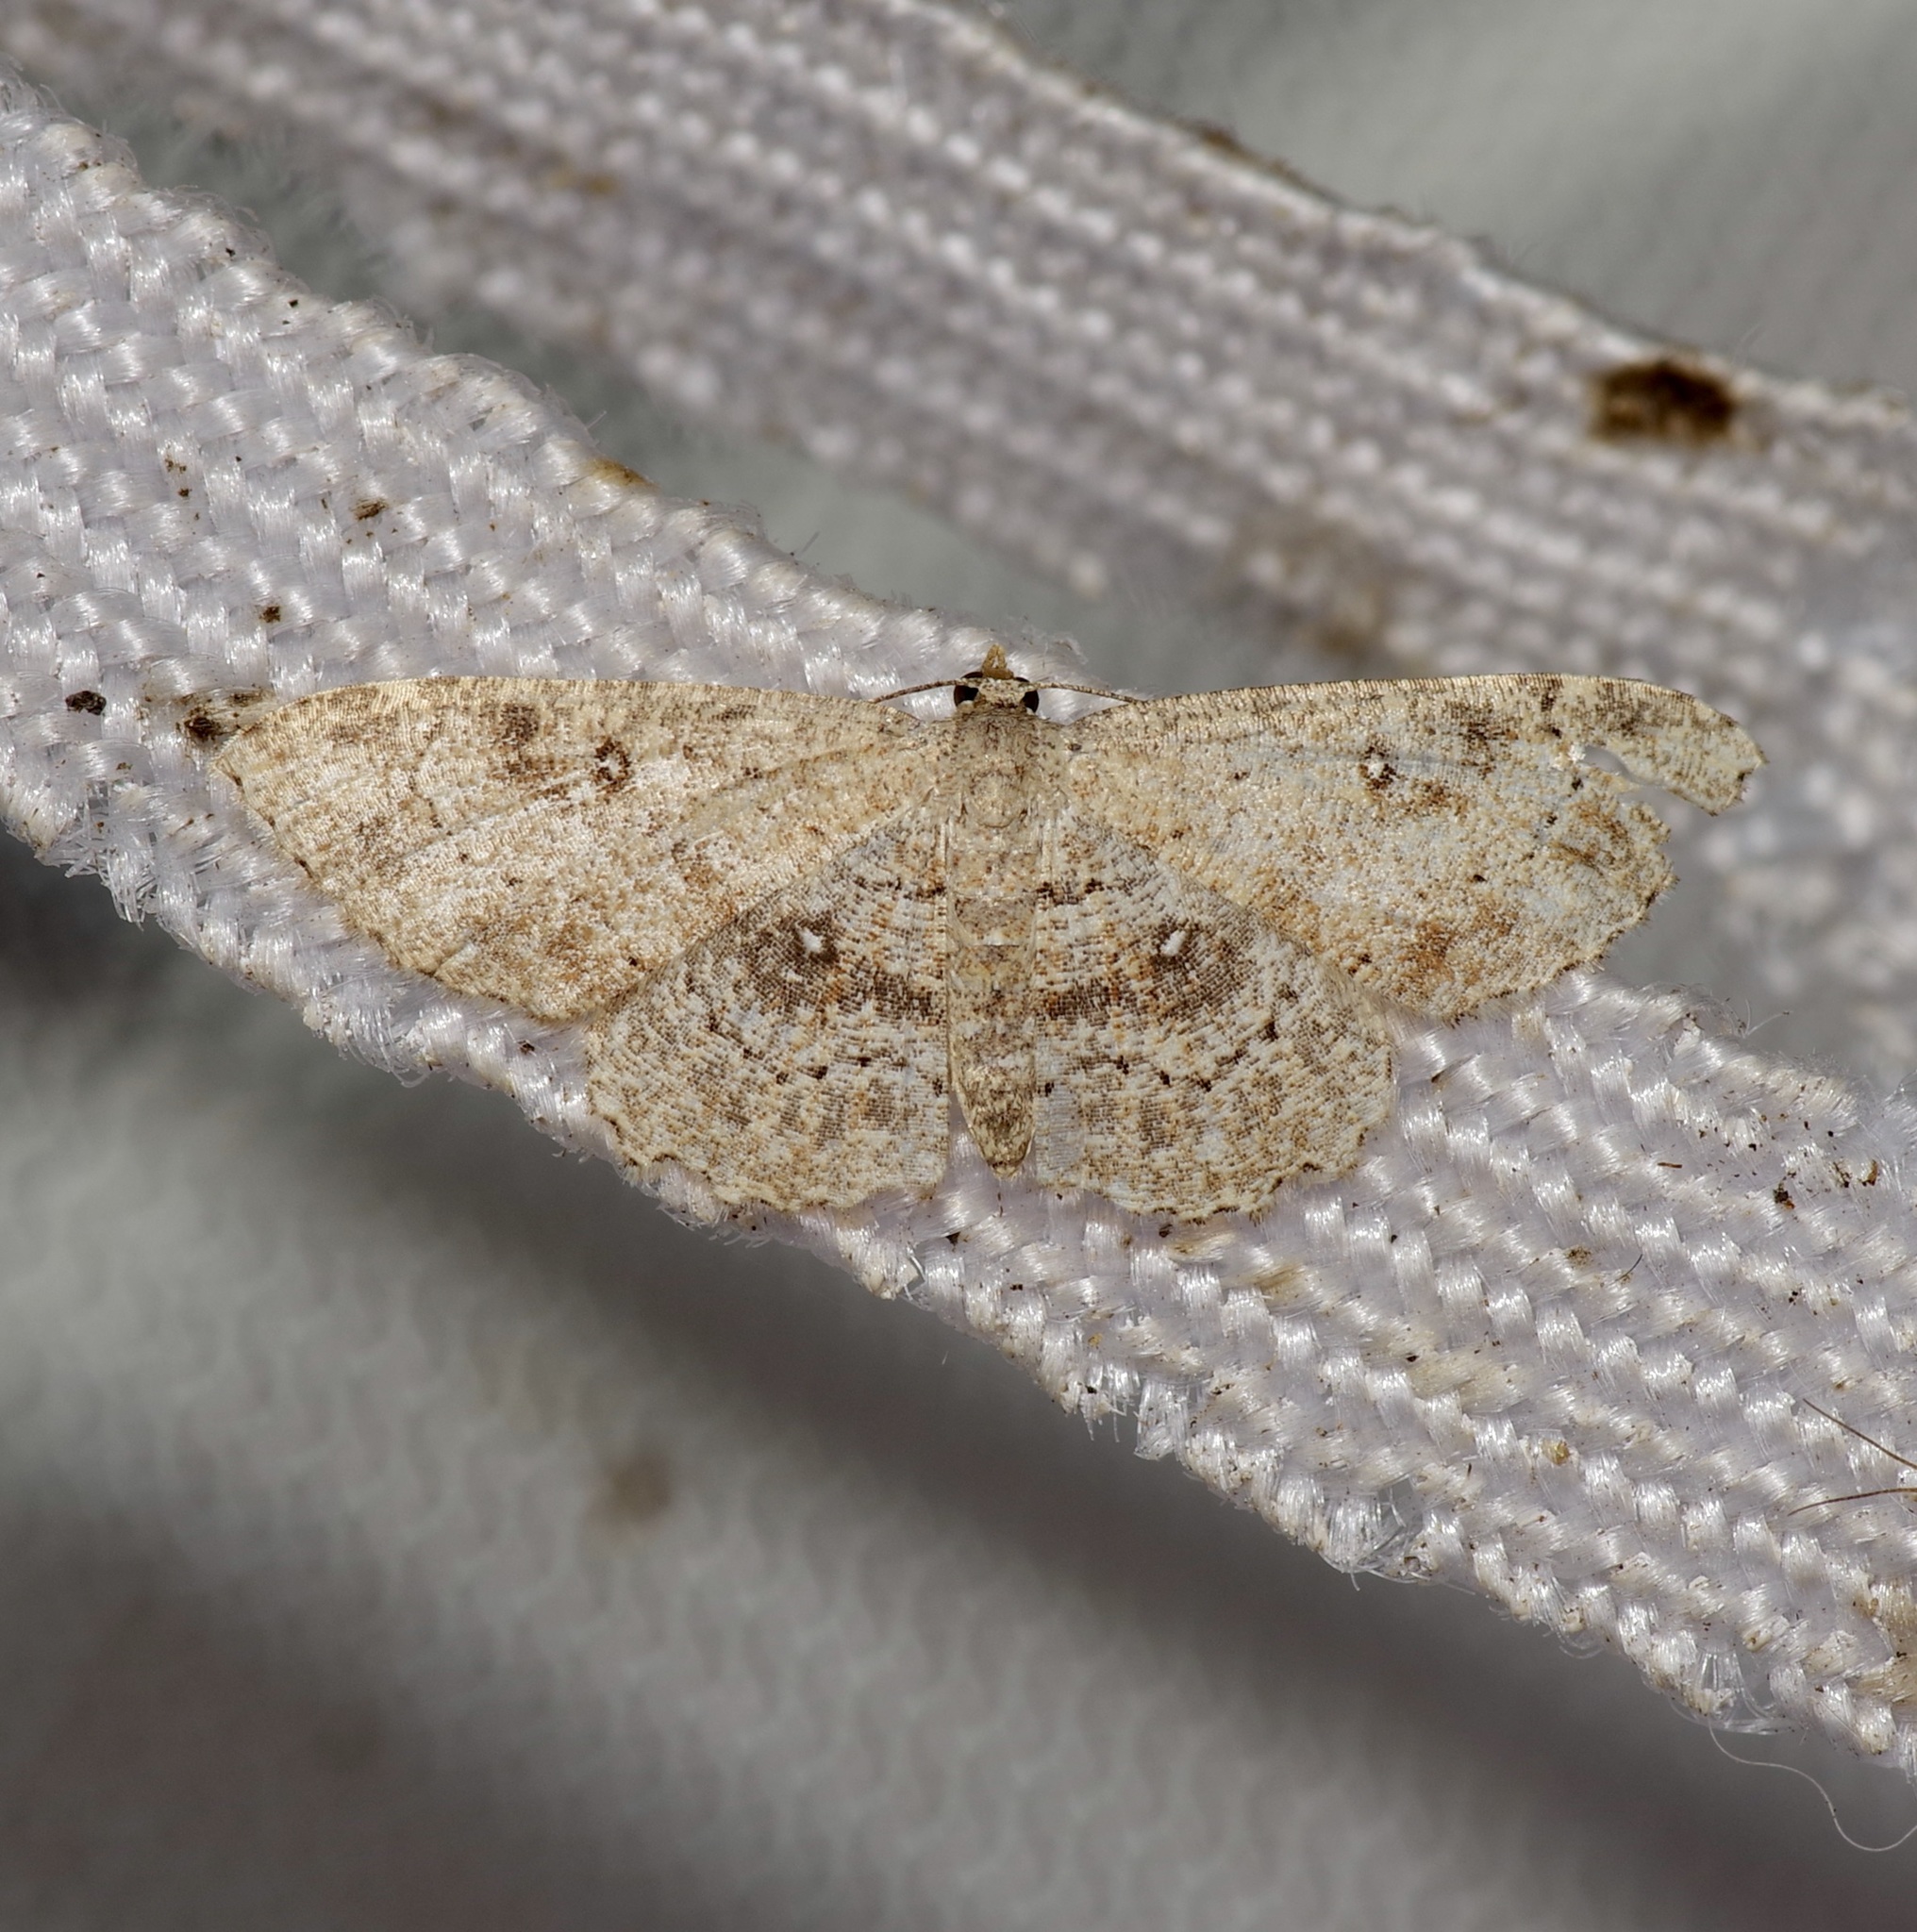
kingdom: Animalia
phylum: Arthropoda
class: Insecta
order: Lepidoptera
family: Geometridae
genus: Cyclophora
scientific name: Cyclophora nanaria
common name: Cankerworm
